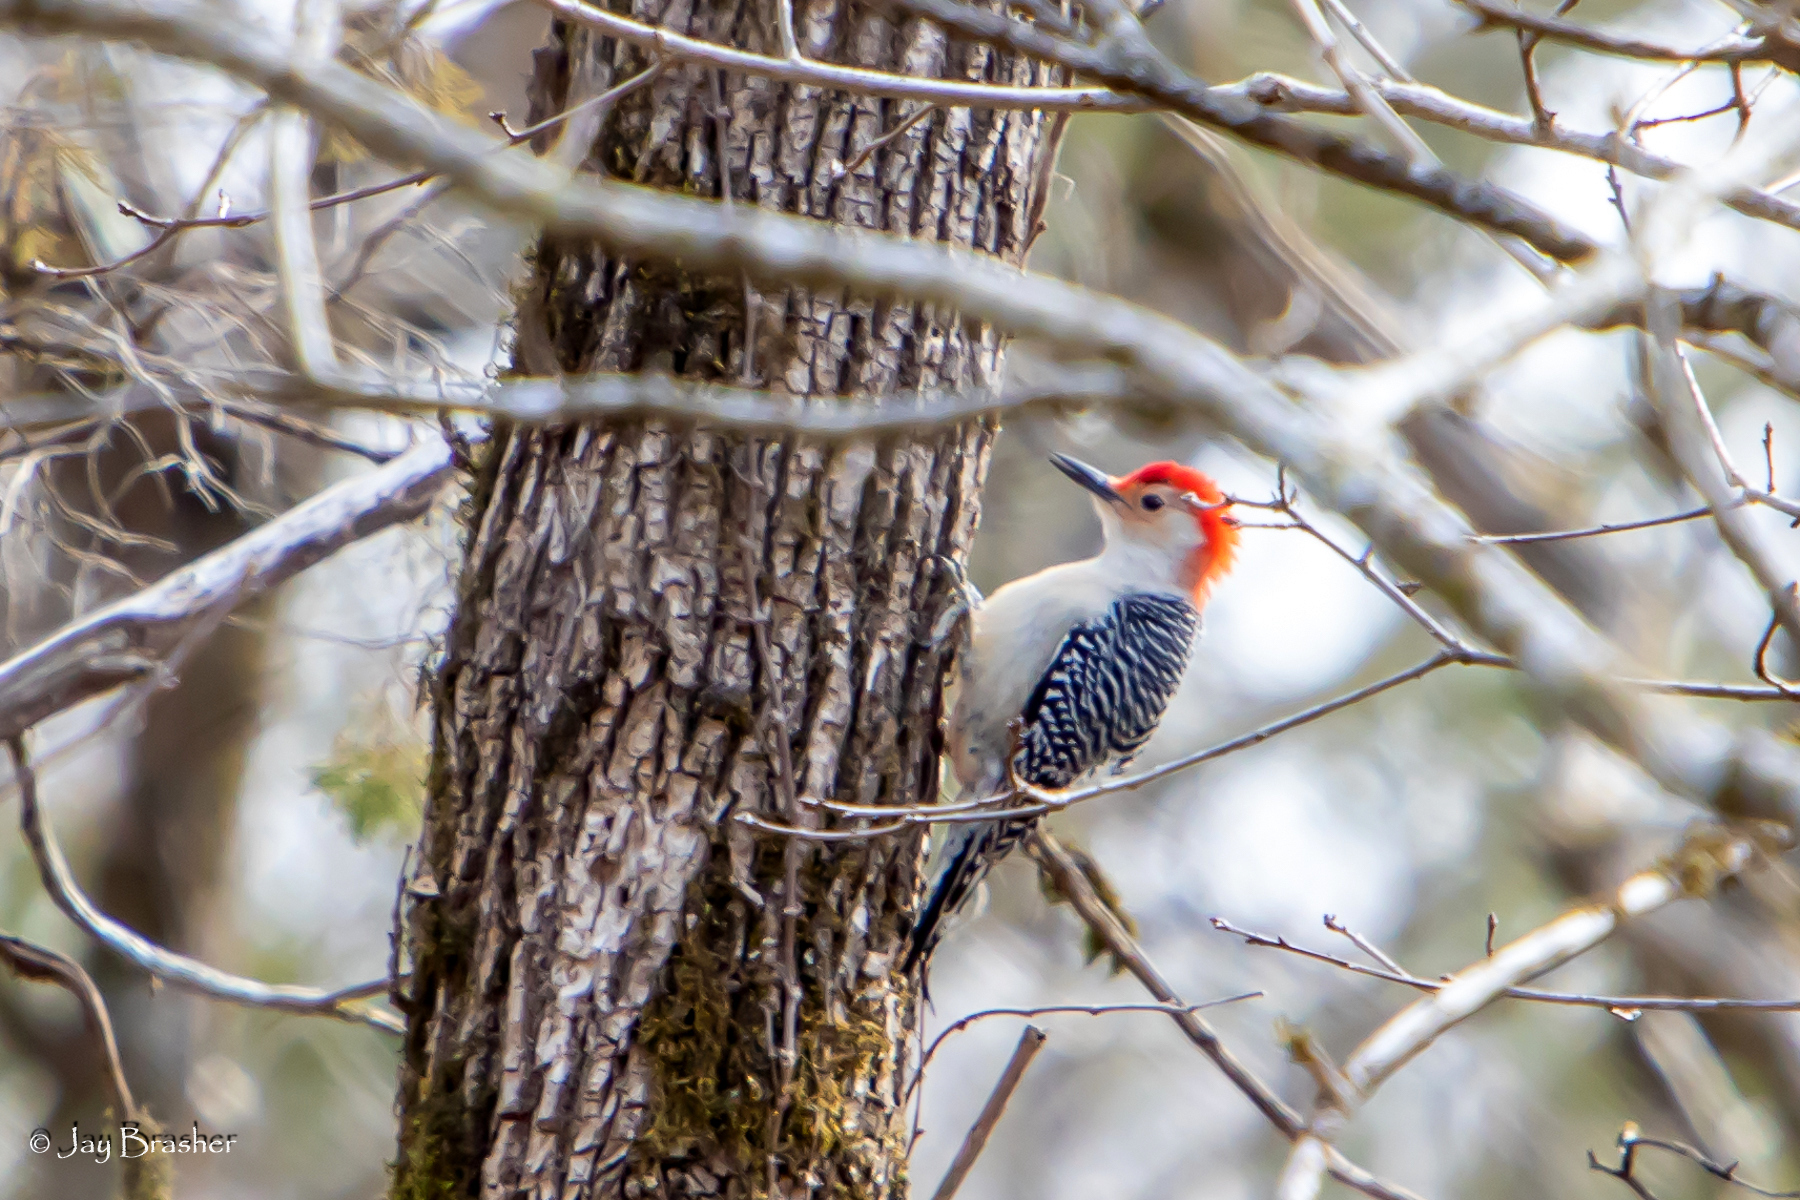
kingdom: Animalia
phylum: Chordata
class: Aves
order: Piciformes
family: Picidae
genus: Melanerpes
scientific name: Melanerpes carolinus
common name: Red-bellied woodpecker
